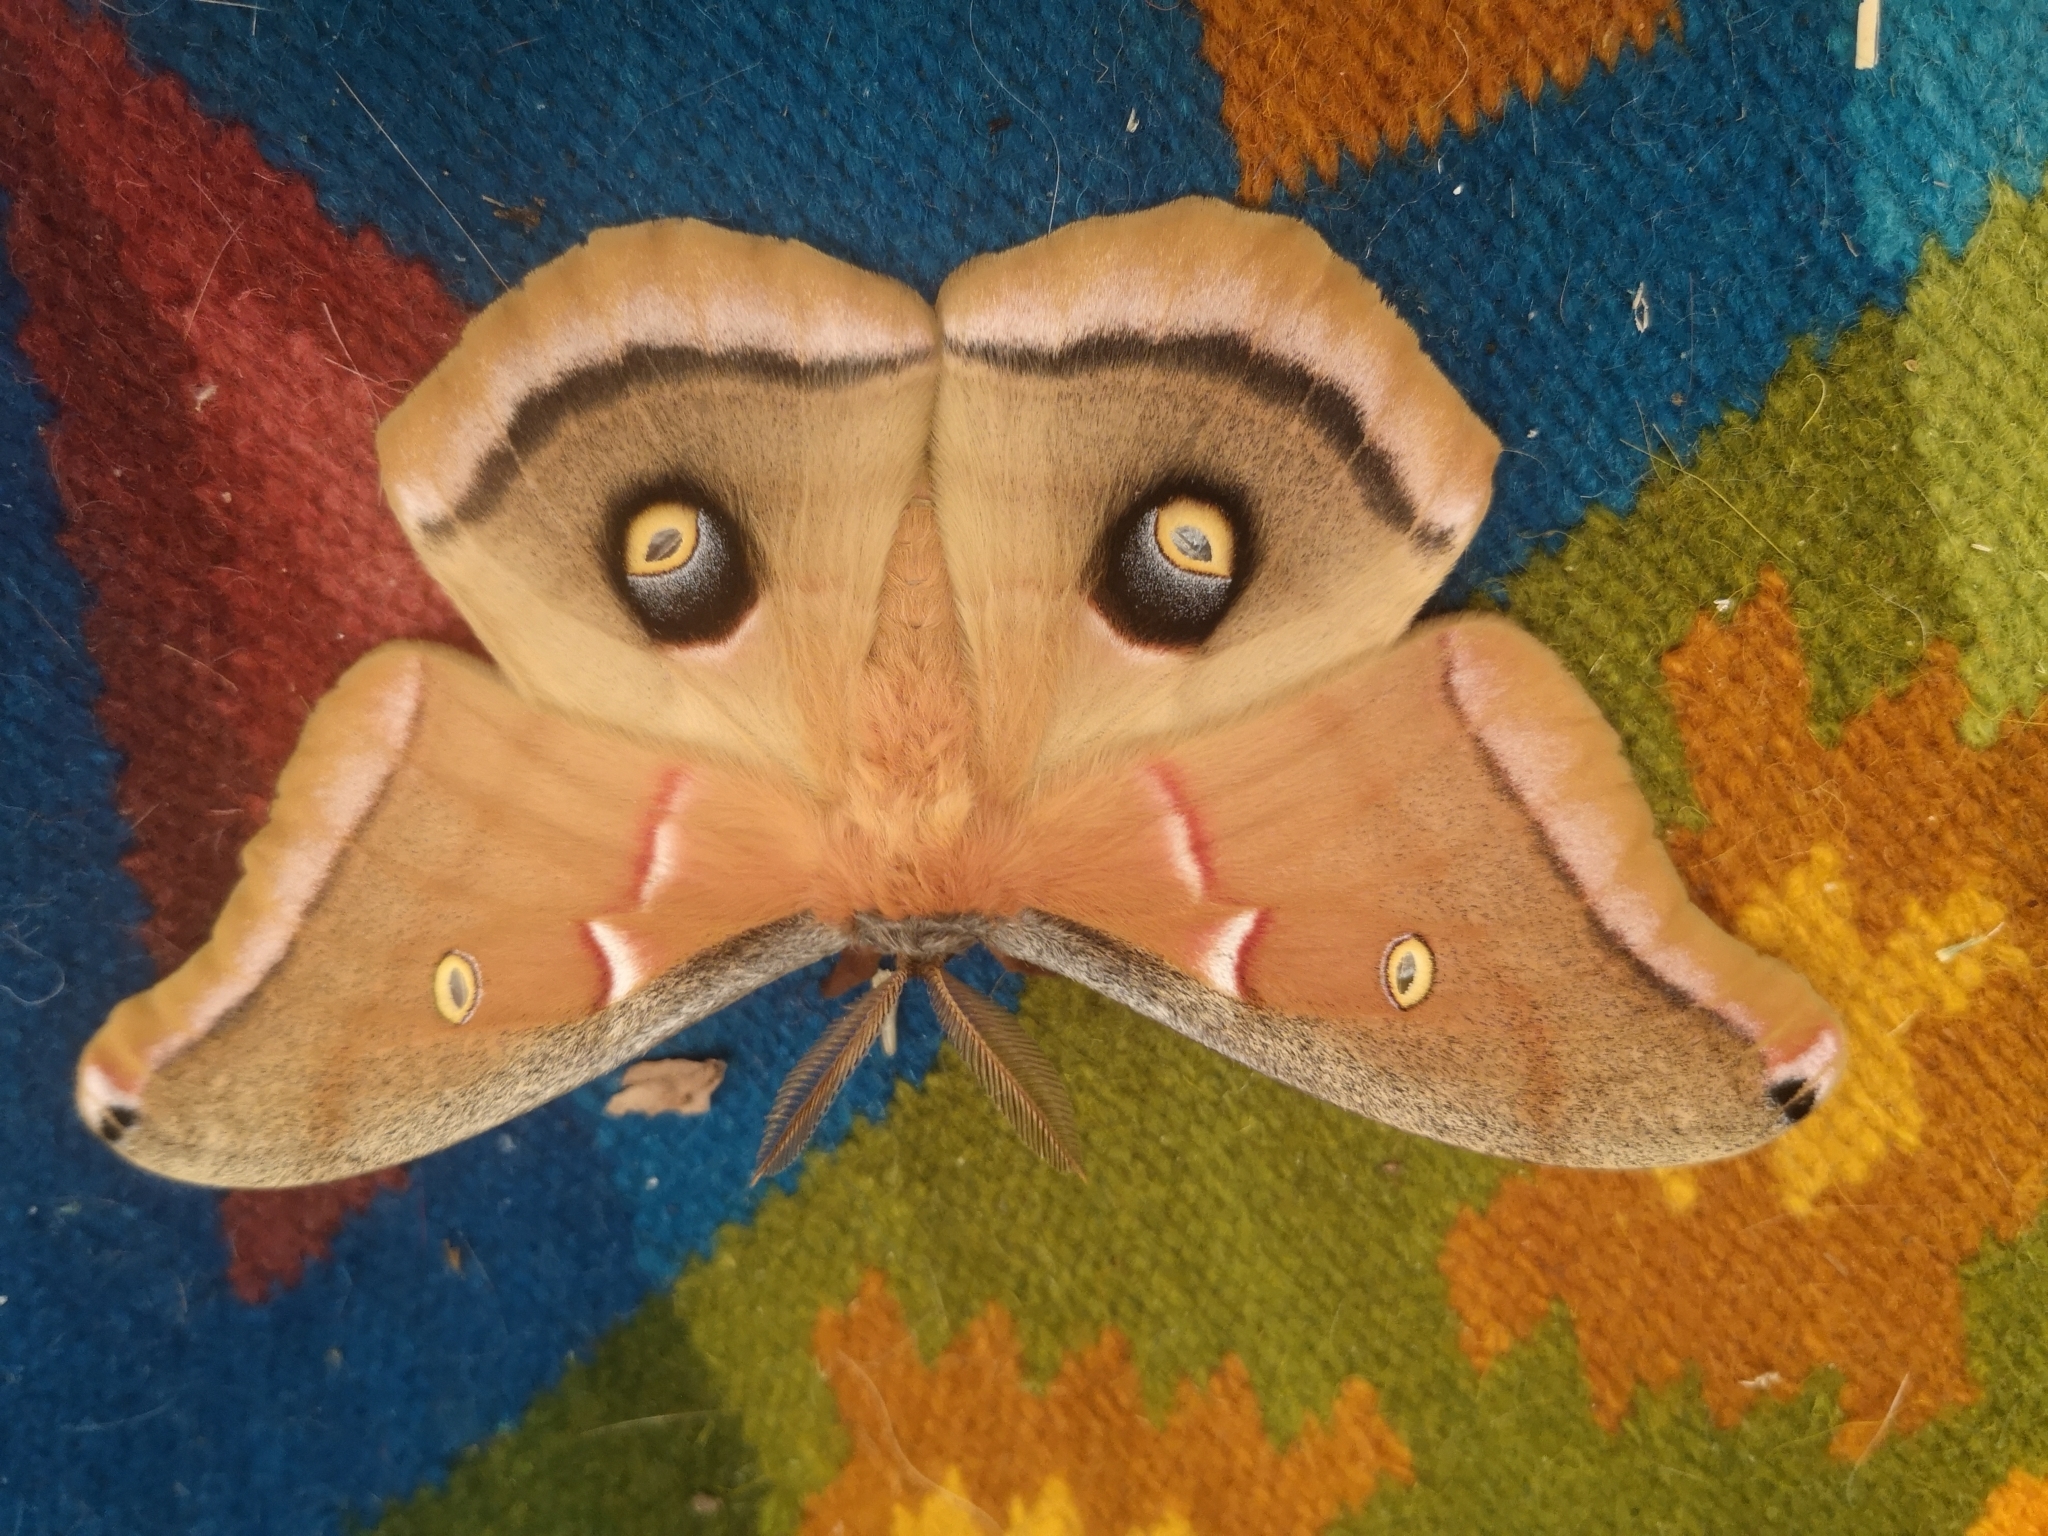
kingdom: Animalia
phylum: Arthropoda
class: Insecta
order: Lepidoptera
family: Saturniidae
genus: Antheraea
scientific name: Antheraea polyphemus
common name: Polyphemus moth
